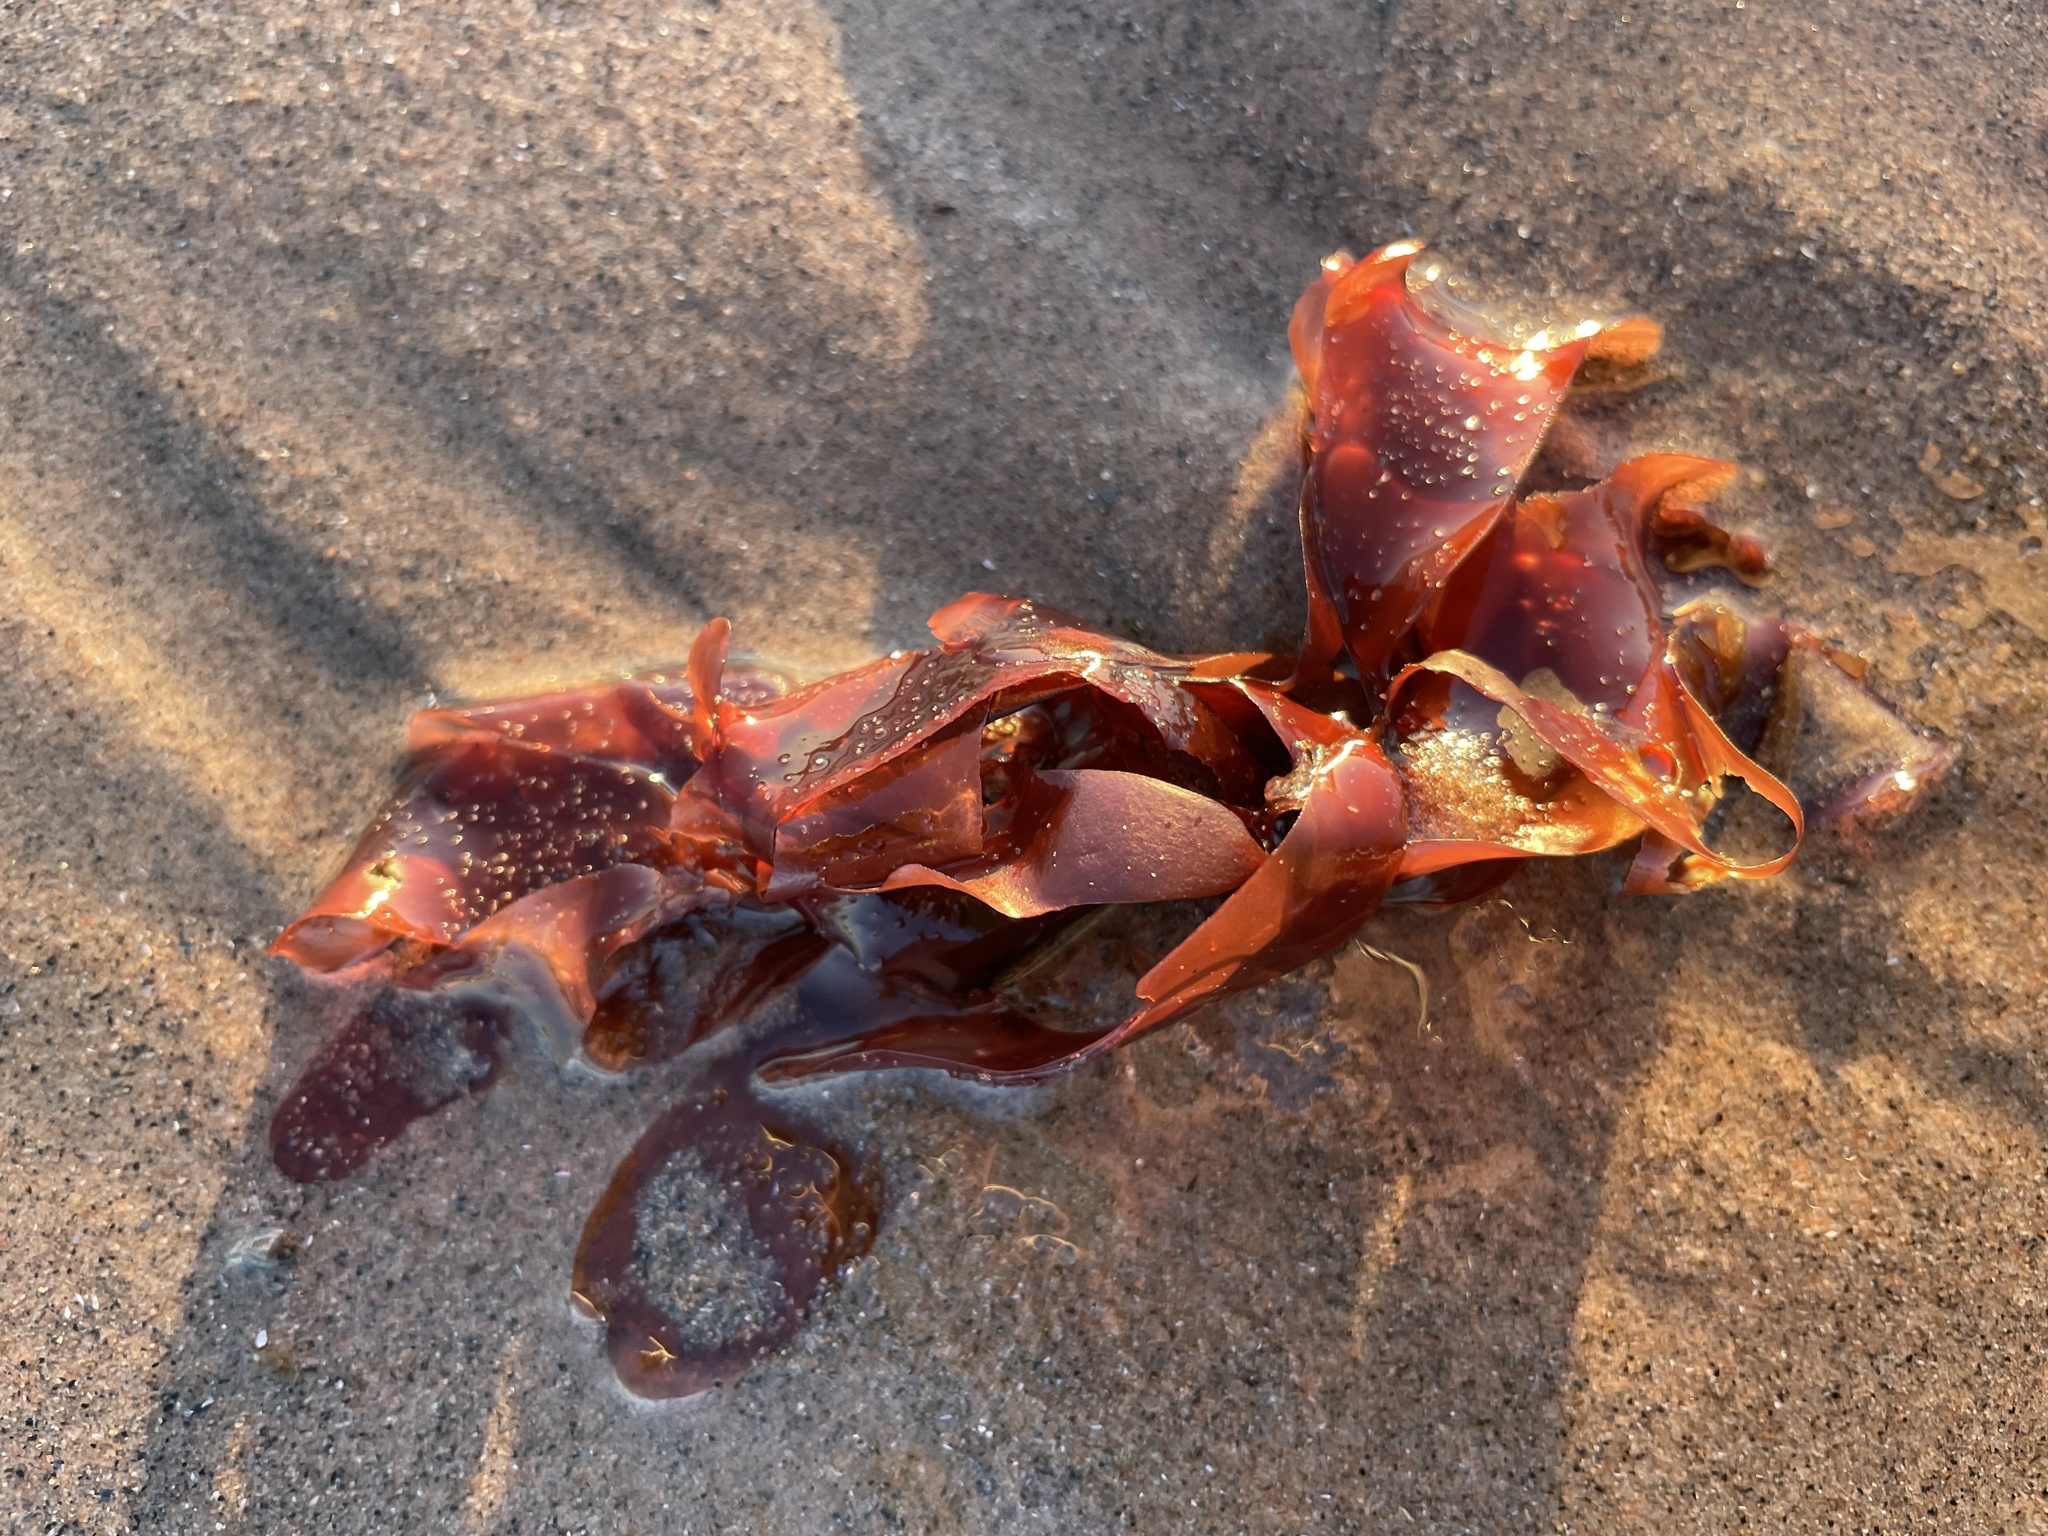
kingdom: Plantae
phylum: Rhodophyta
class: Florideophyceae
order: Palmariales
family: Palmariaceae
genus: Palmaria
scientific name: Palmaria palmata
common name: Dulse
